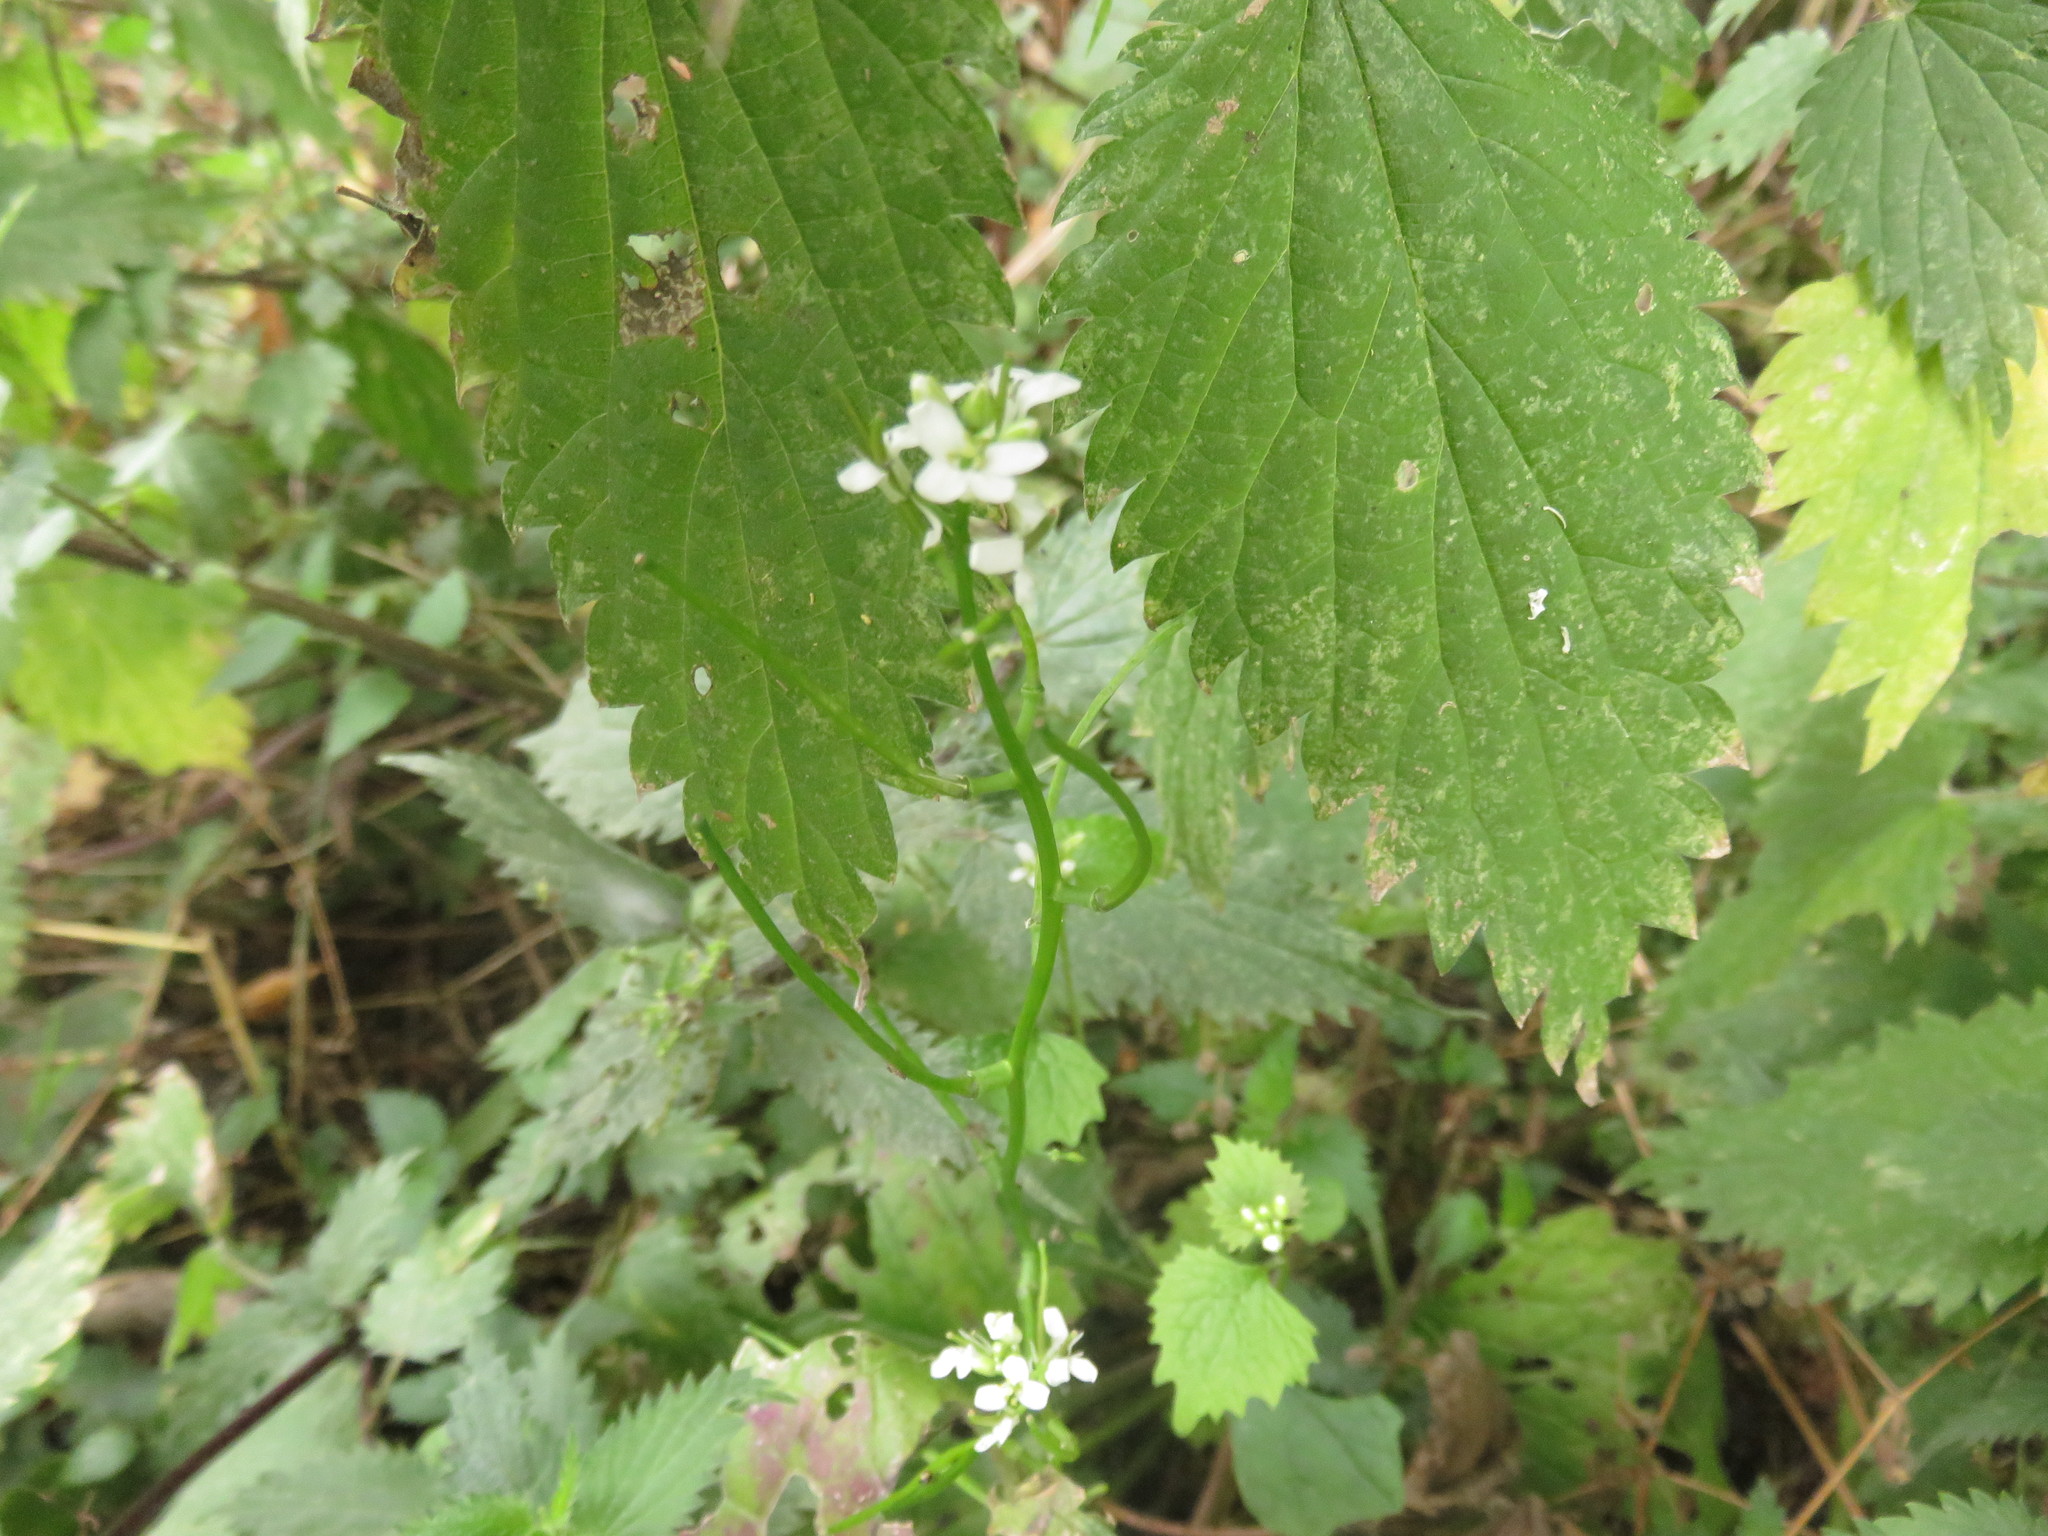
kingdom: Plantae
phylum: Tracheophyta
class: Magnoliopsida
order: Brassicales
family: Brassicaceae
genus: Alliaria
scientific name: Alliaria petiolata
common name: Garlic mustard
